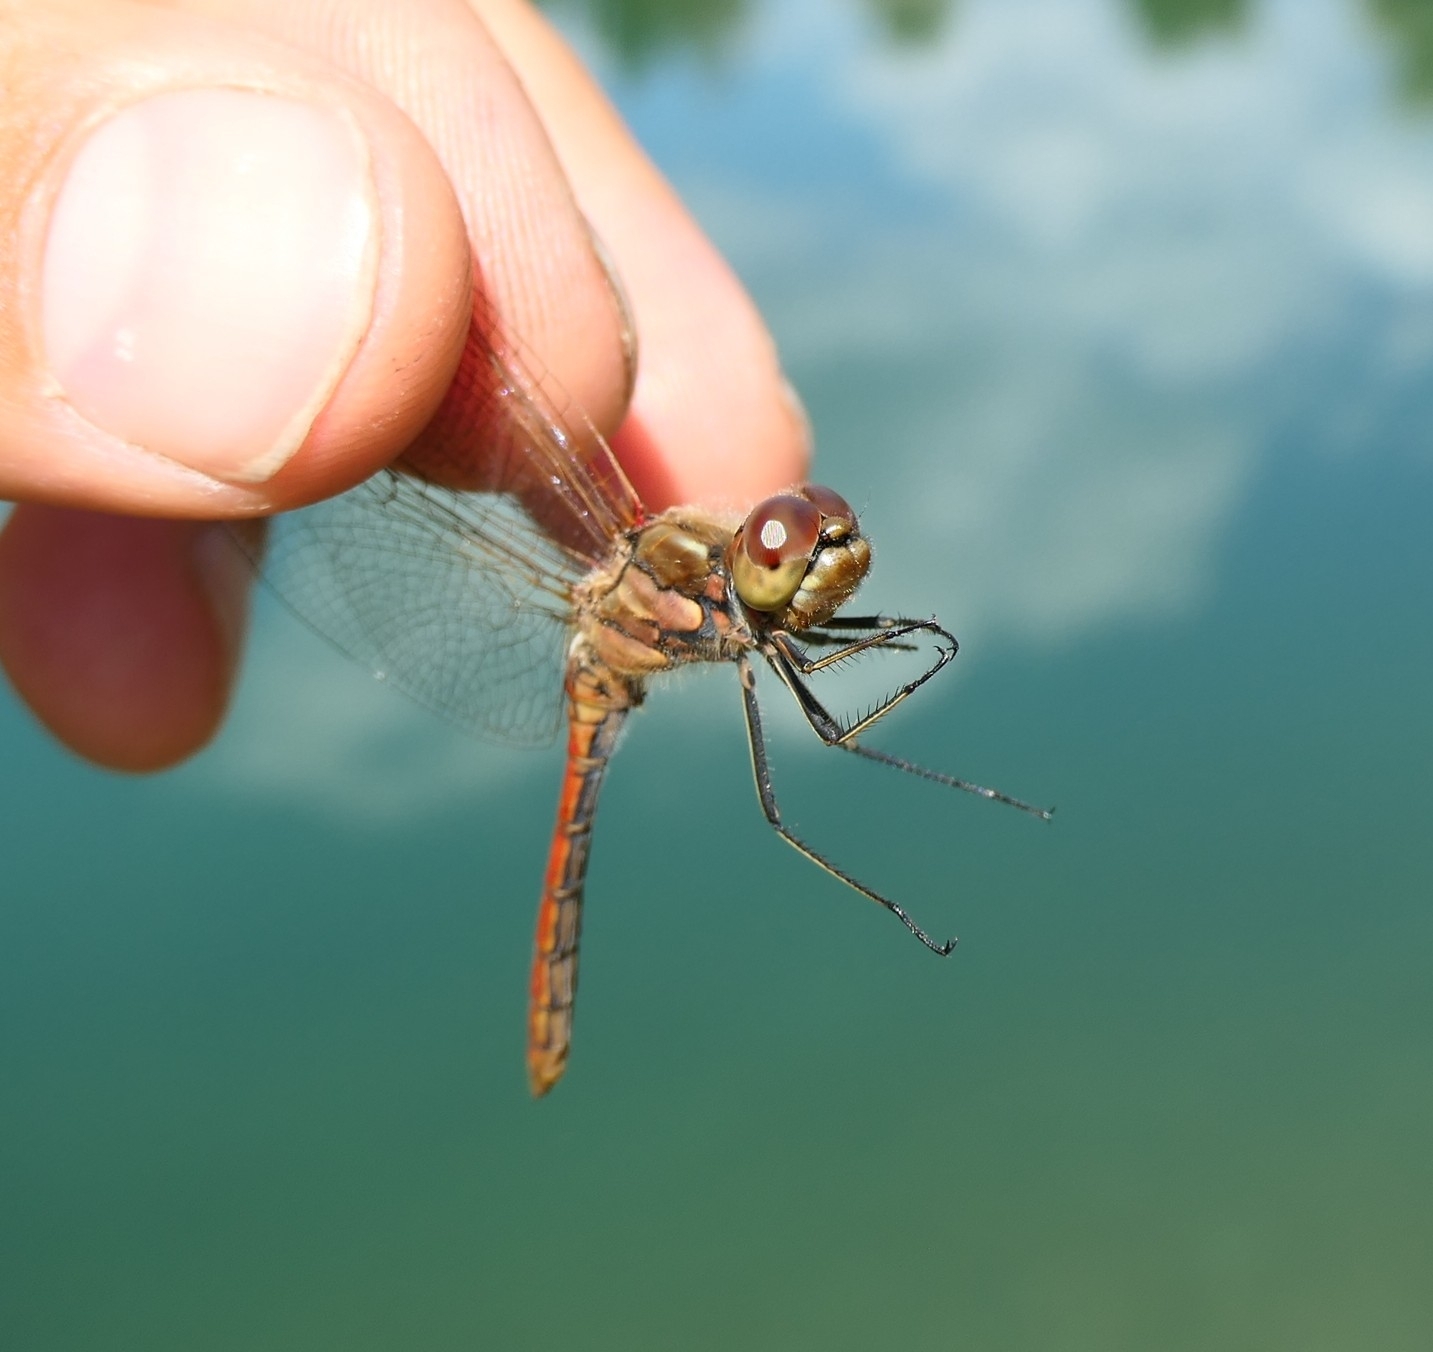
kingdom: Animalia
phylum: Arthropoda
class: Insecta
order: Odonata
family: Libellulidae
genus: Sympetrum
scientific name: Sympetrum vulgatum
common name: Vagrant darter
